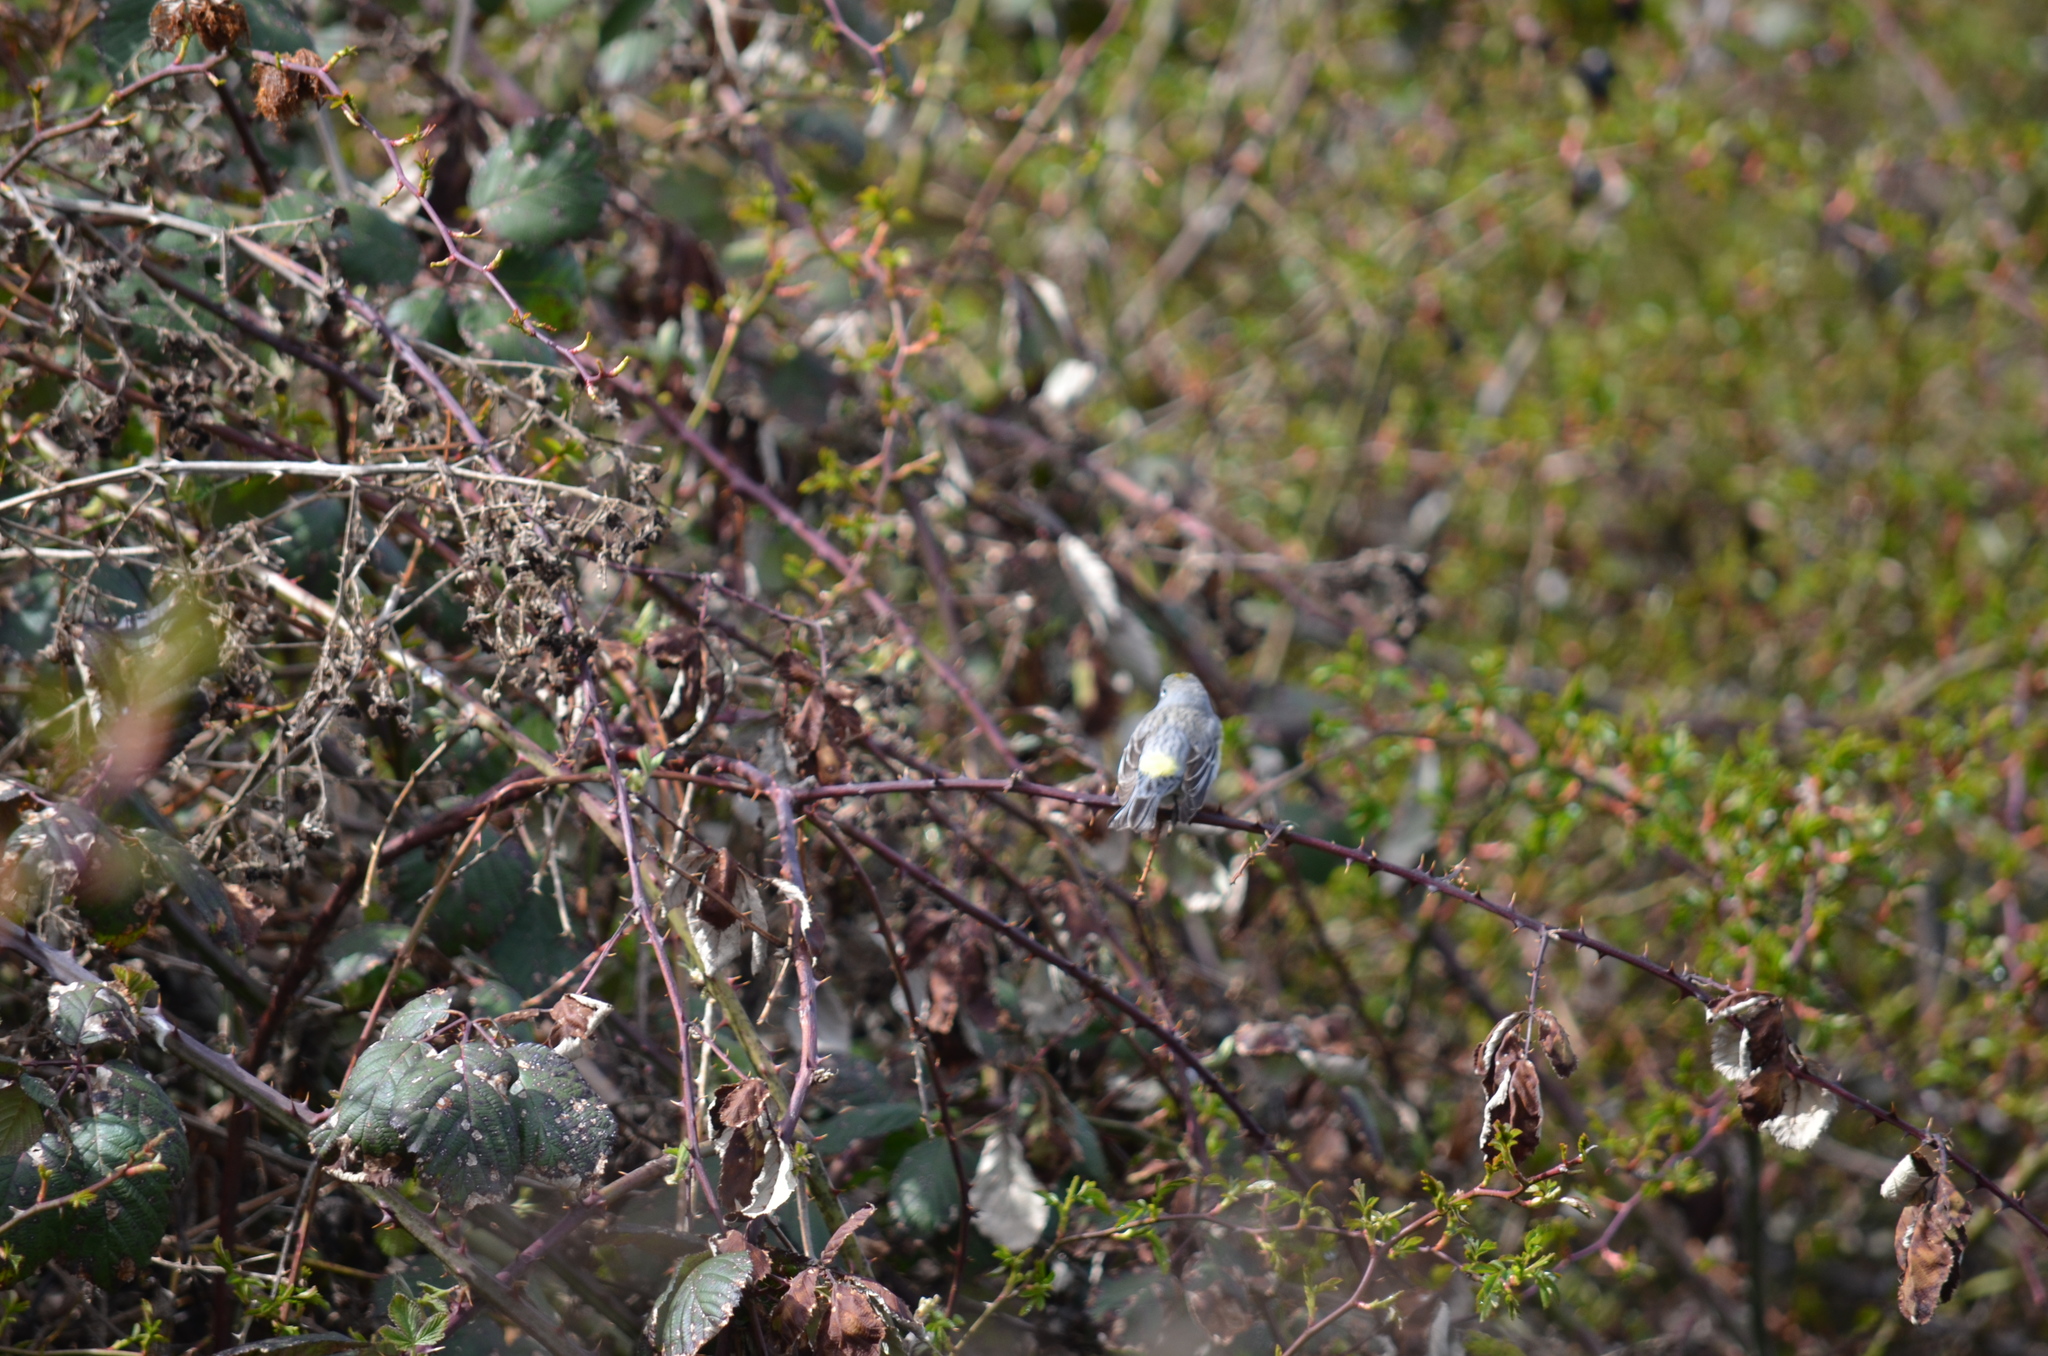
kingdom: Animalia
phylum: Chordata
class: Aves
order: Passeriformes
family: Parulidae
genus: Setophaga
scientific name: Setophaga coronata
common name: Myrtle warbler
